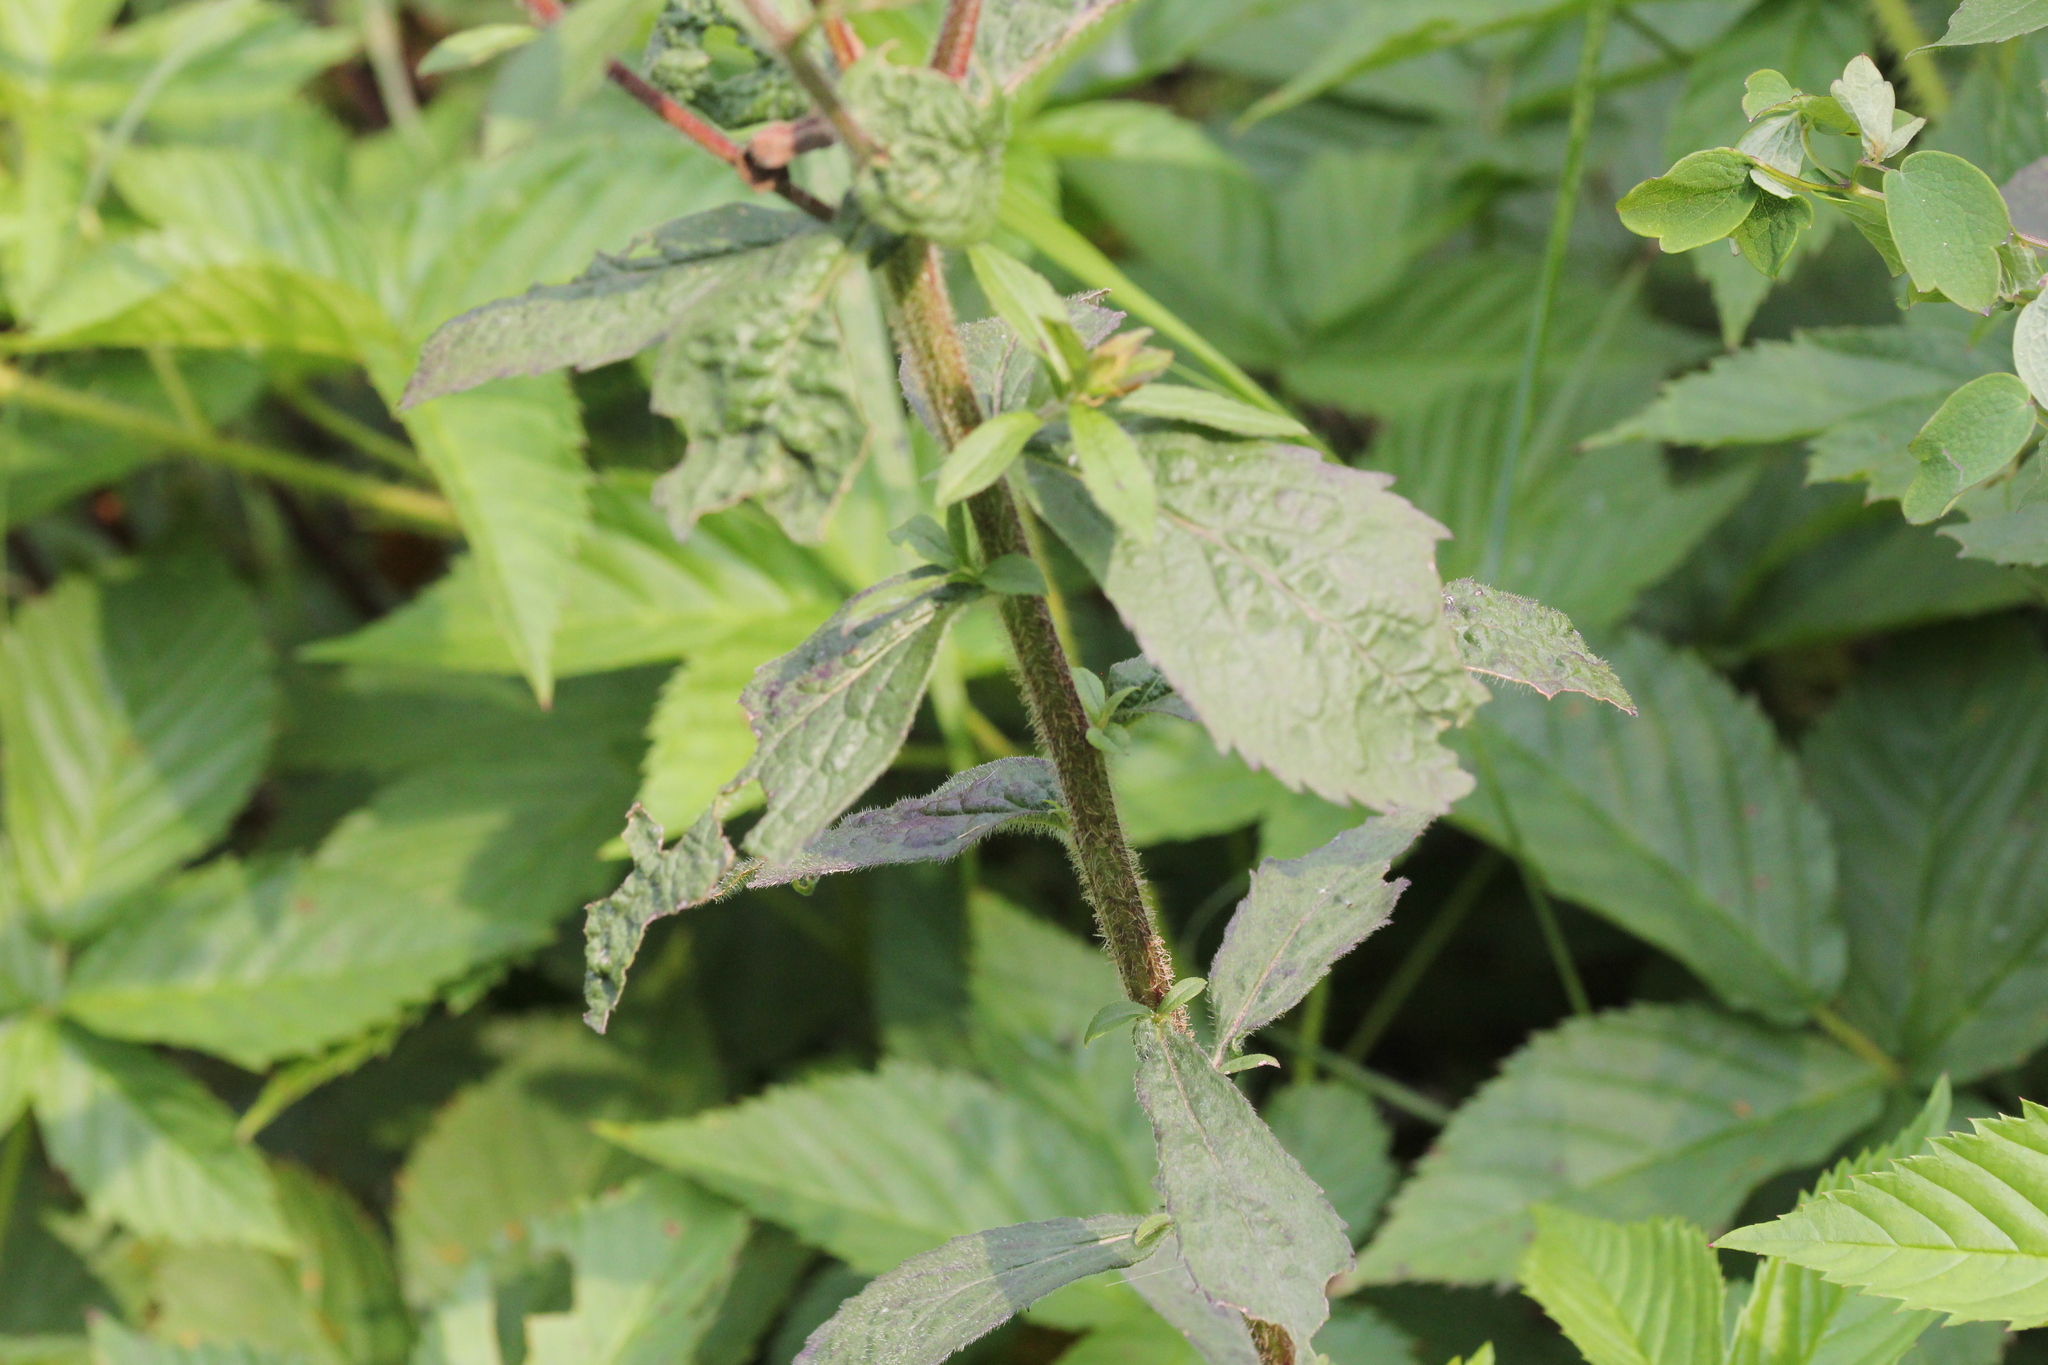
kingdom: Plantae
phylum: Tracheophyta
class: Magnoliopsida
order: Asterales
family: Asteraceae
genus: Solidago
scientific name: Solidago rugosa
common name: Rough-stemmed goldenrod
